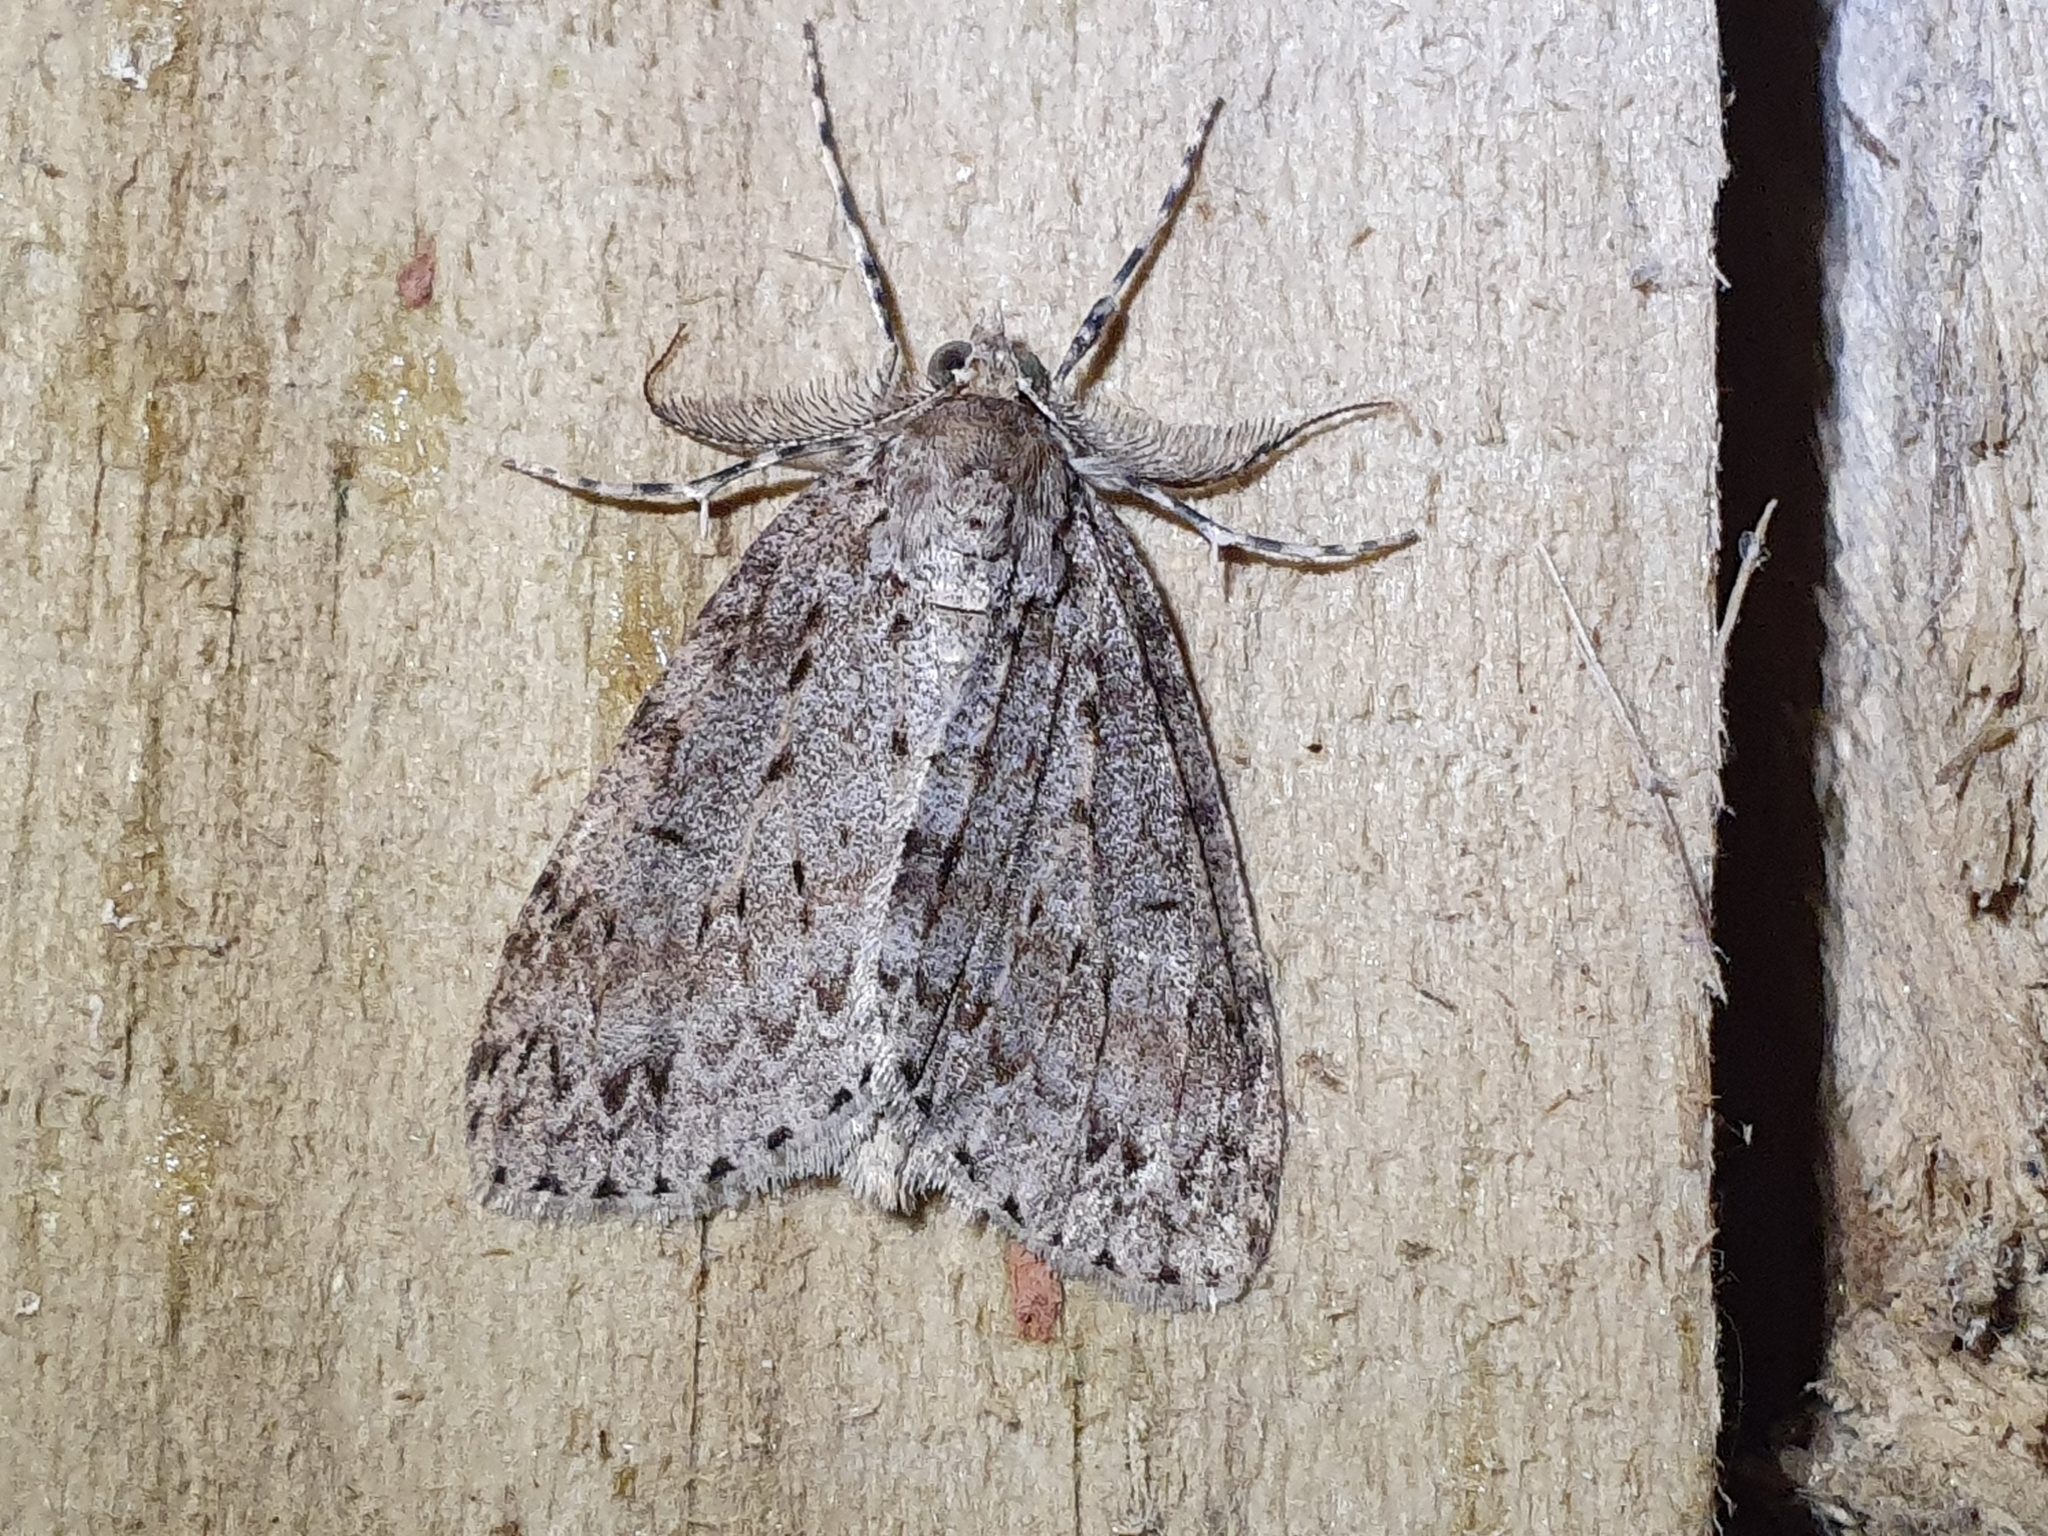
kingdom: Animalia
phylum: Arthropoda
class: Insecta
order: Lepidoptera
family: Geometridae
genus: Pseudocoremia
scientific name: Pseudocoremia fenerata
